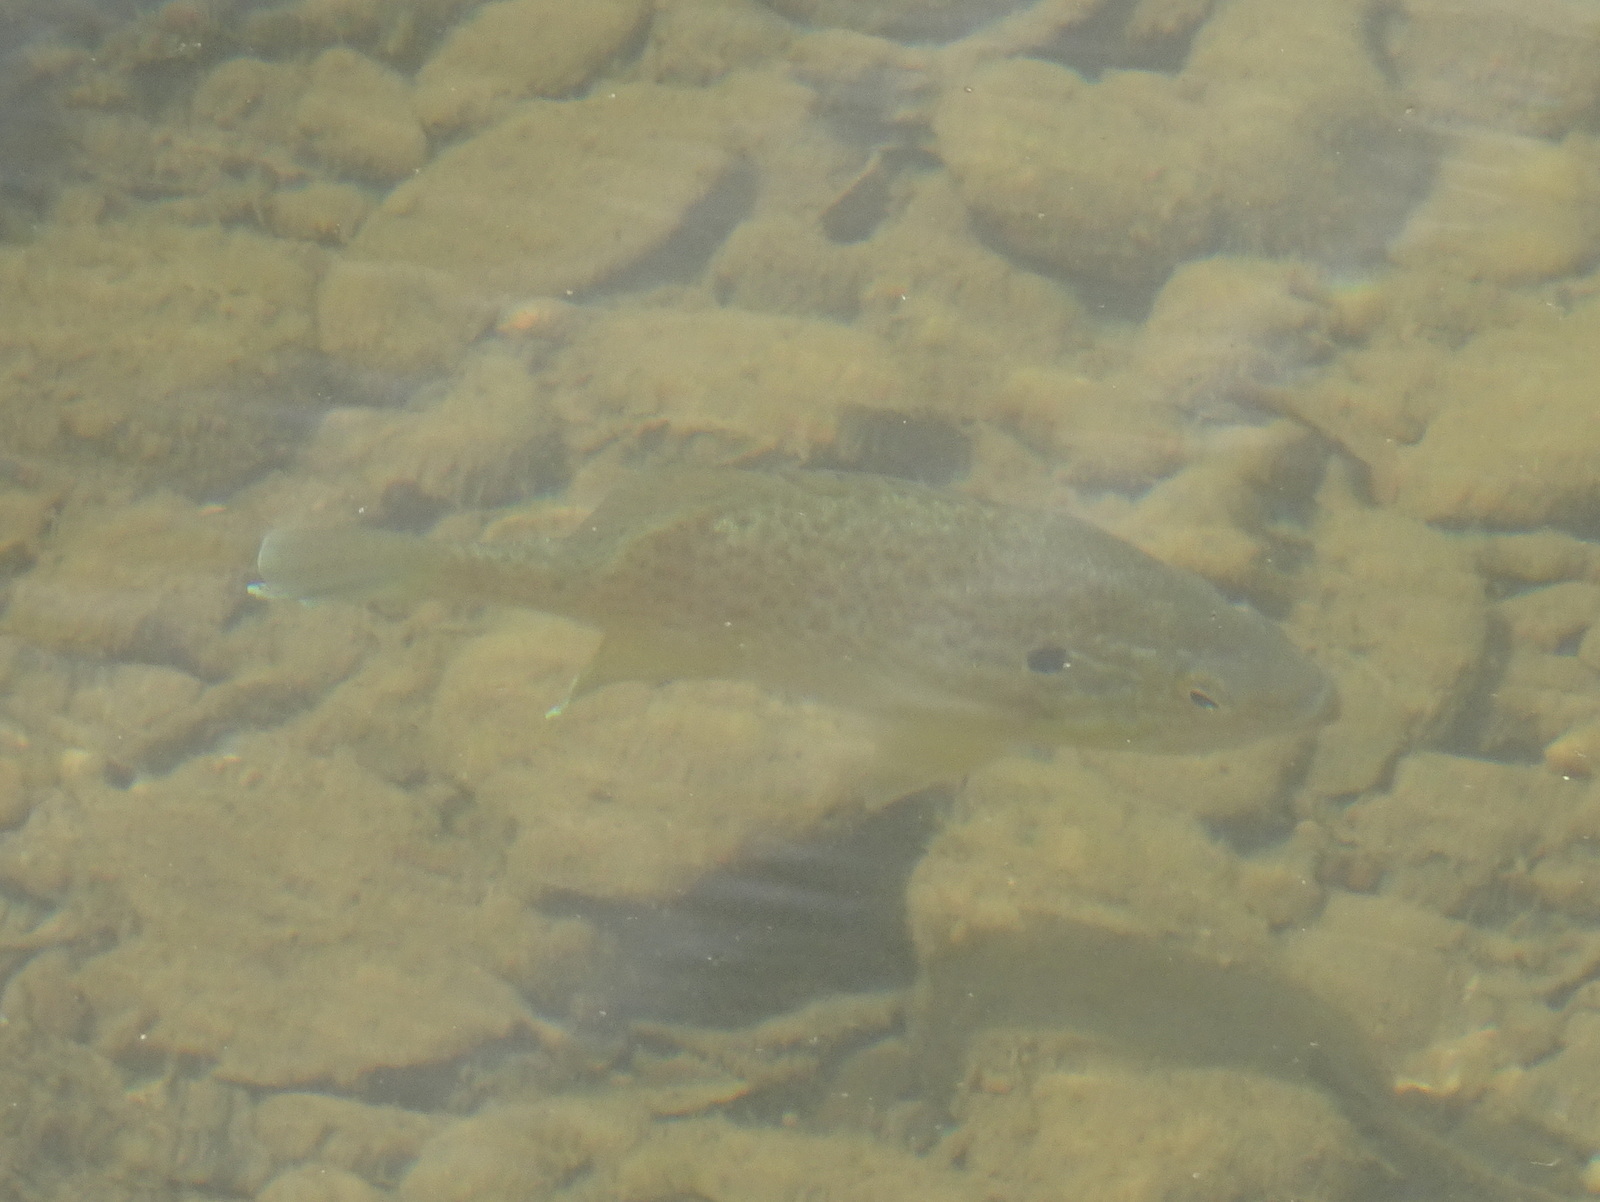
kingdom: Animalia
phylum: Chordata
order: Perciformes
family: Centrarchidae
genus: Lepomis
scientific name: Lepomis gibbosus
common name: Pumpkinseed
